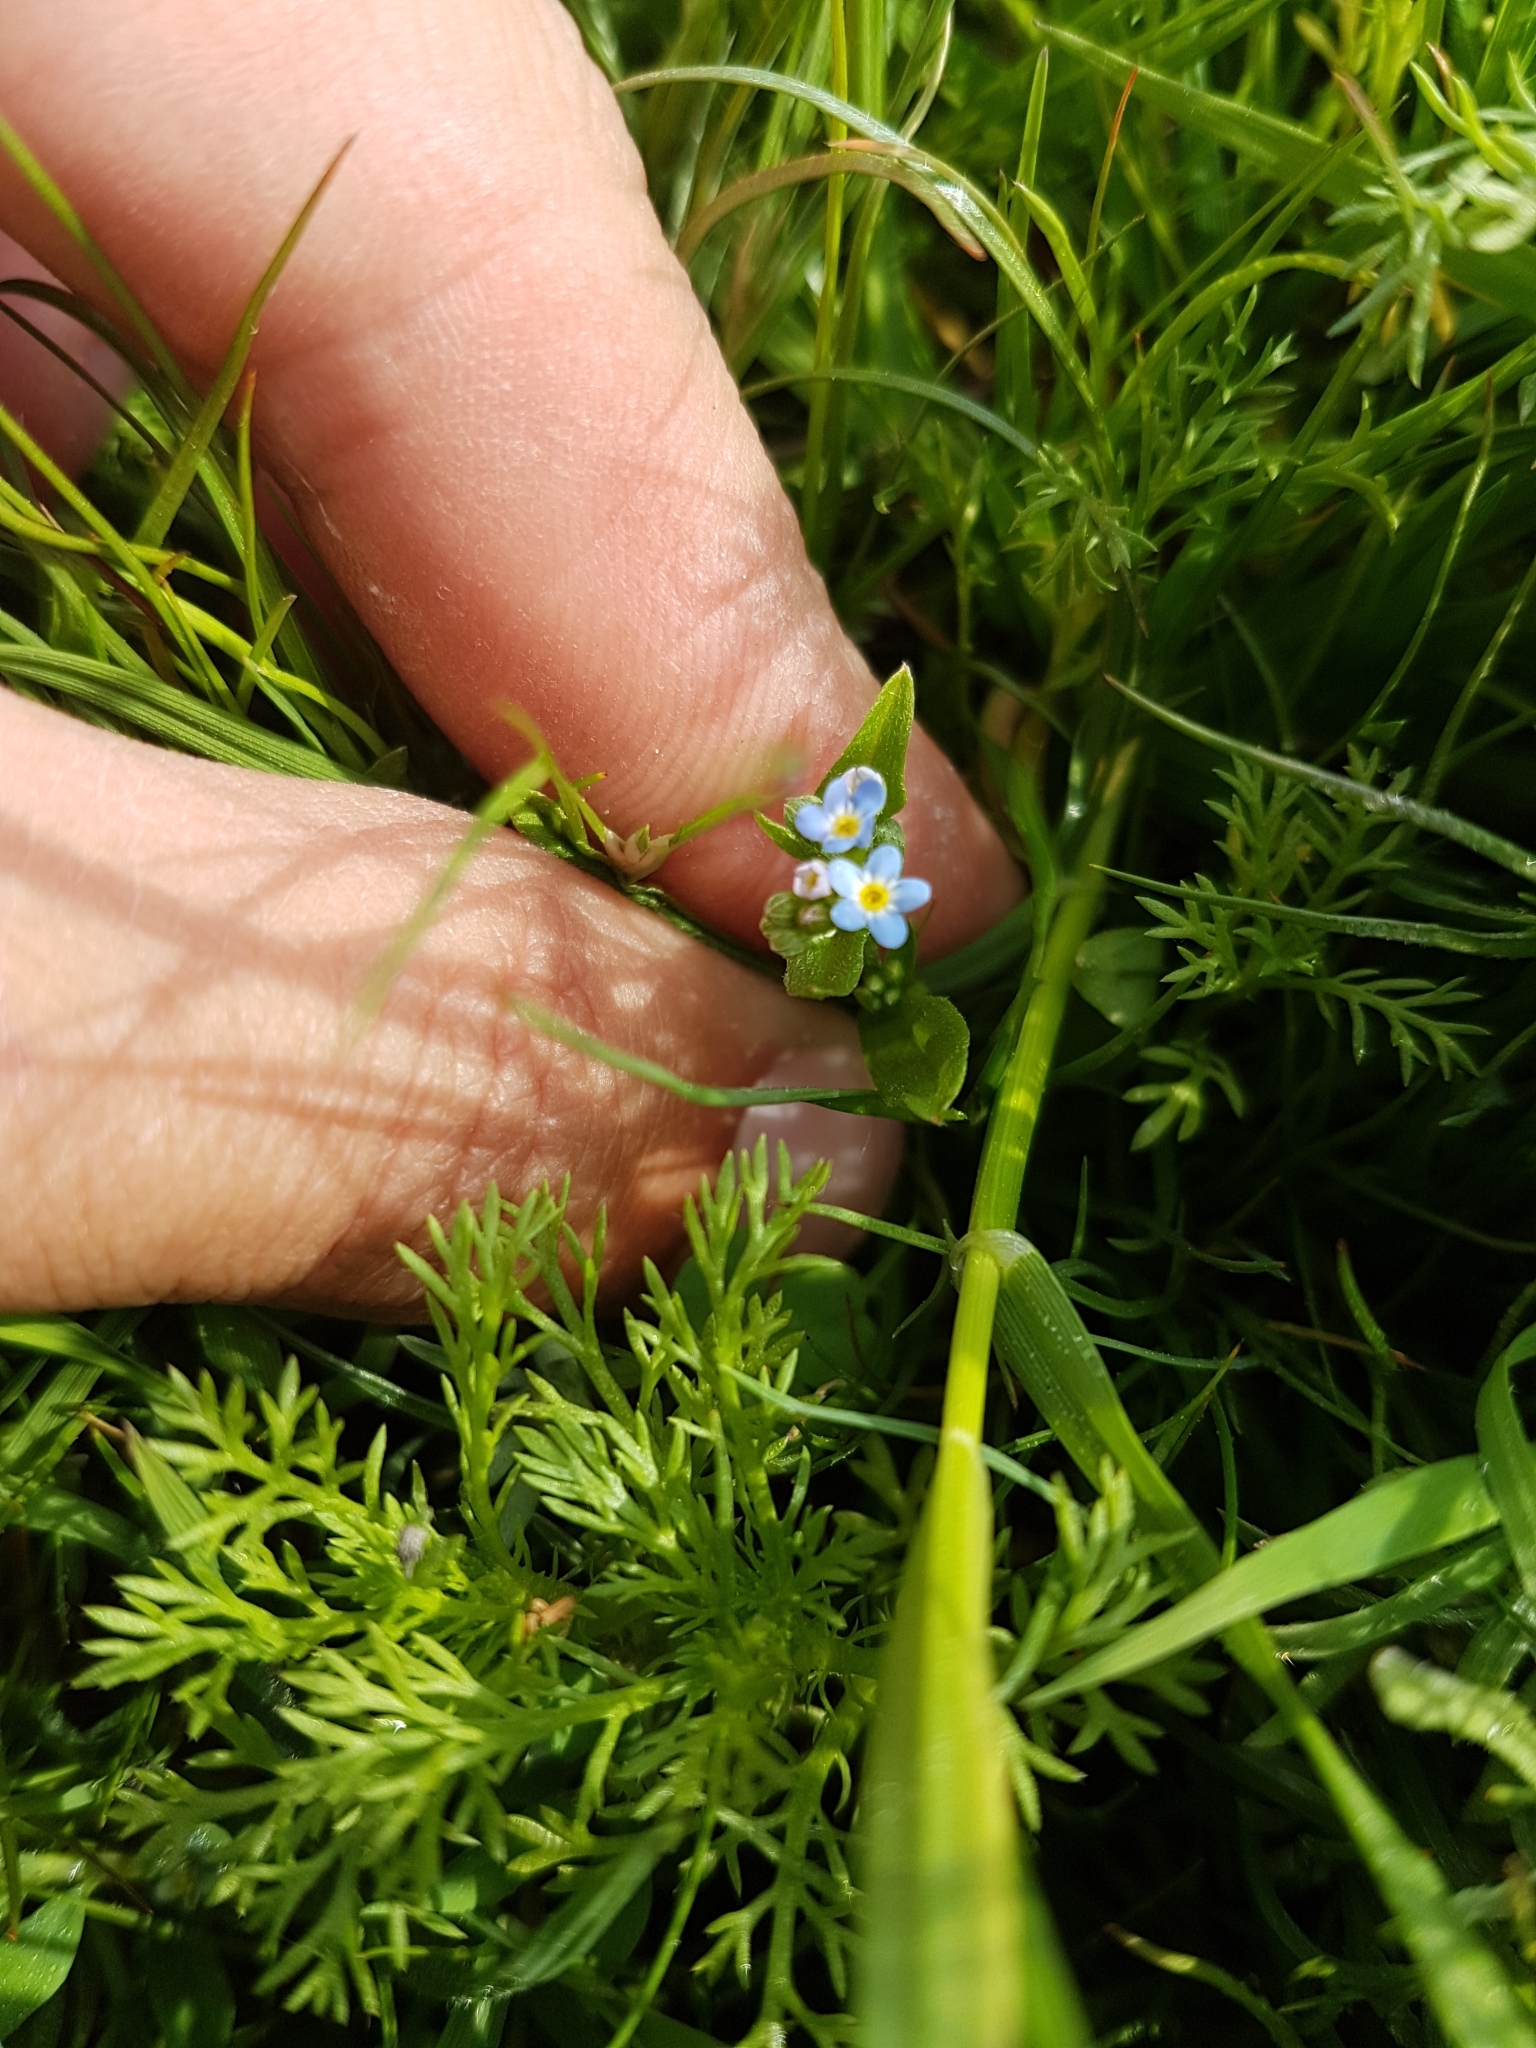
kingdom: Plantae
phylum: Tracheophyta
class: Magnoliopsida
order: Boraginales
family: Boraginaceae
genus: Myosotis
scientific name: Myosotis arvensis
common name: Field forget-me-not
